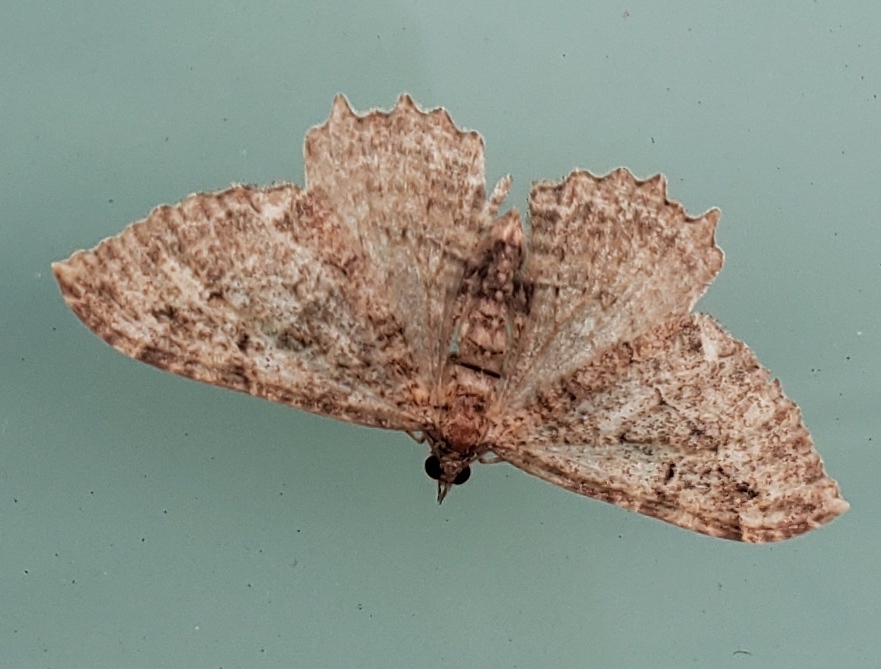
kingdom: Animalia
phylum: Arthropoda
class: Insecta
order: Lepidoptera
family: Geometridae
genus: Rheumaptera
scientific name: Rheumaptera
